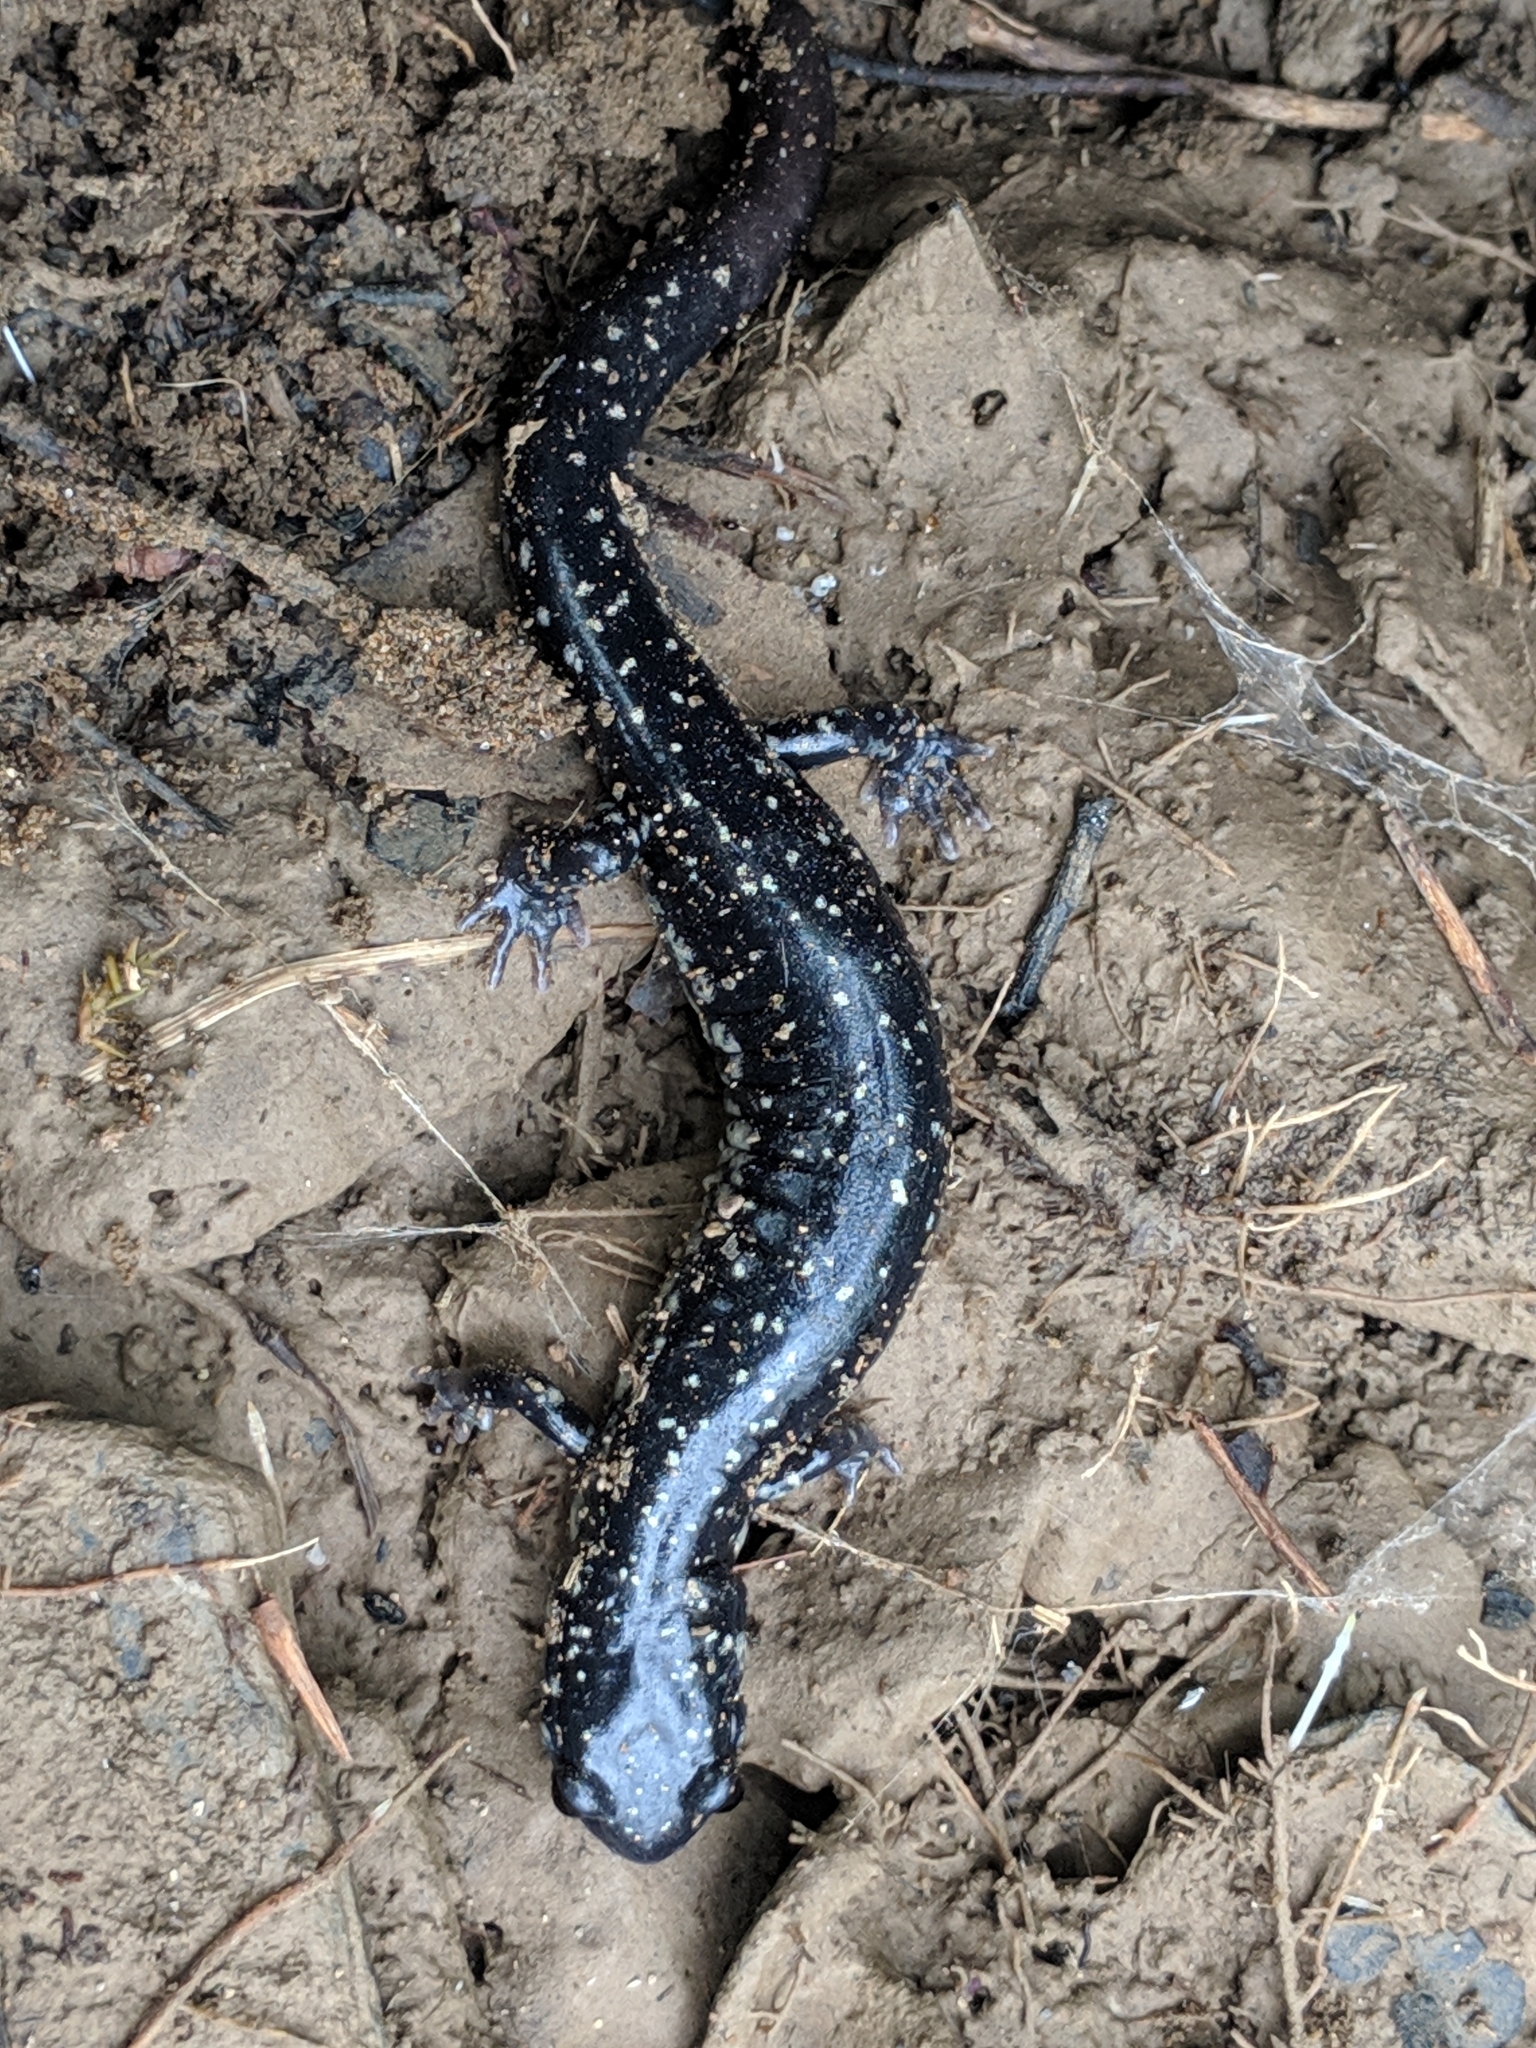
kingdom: Animalia
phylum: Chordata
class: Amphibia
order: Caudata
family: Plethodontidae
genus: Plethodon
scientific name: Plethodon glutinosus
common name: Northern slimy salamander
